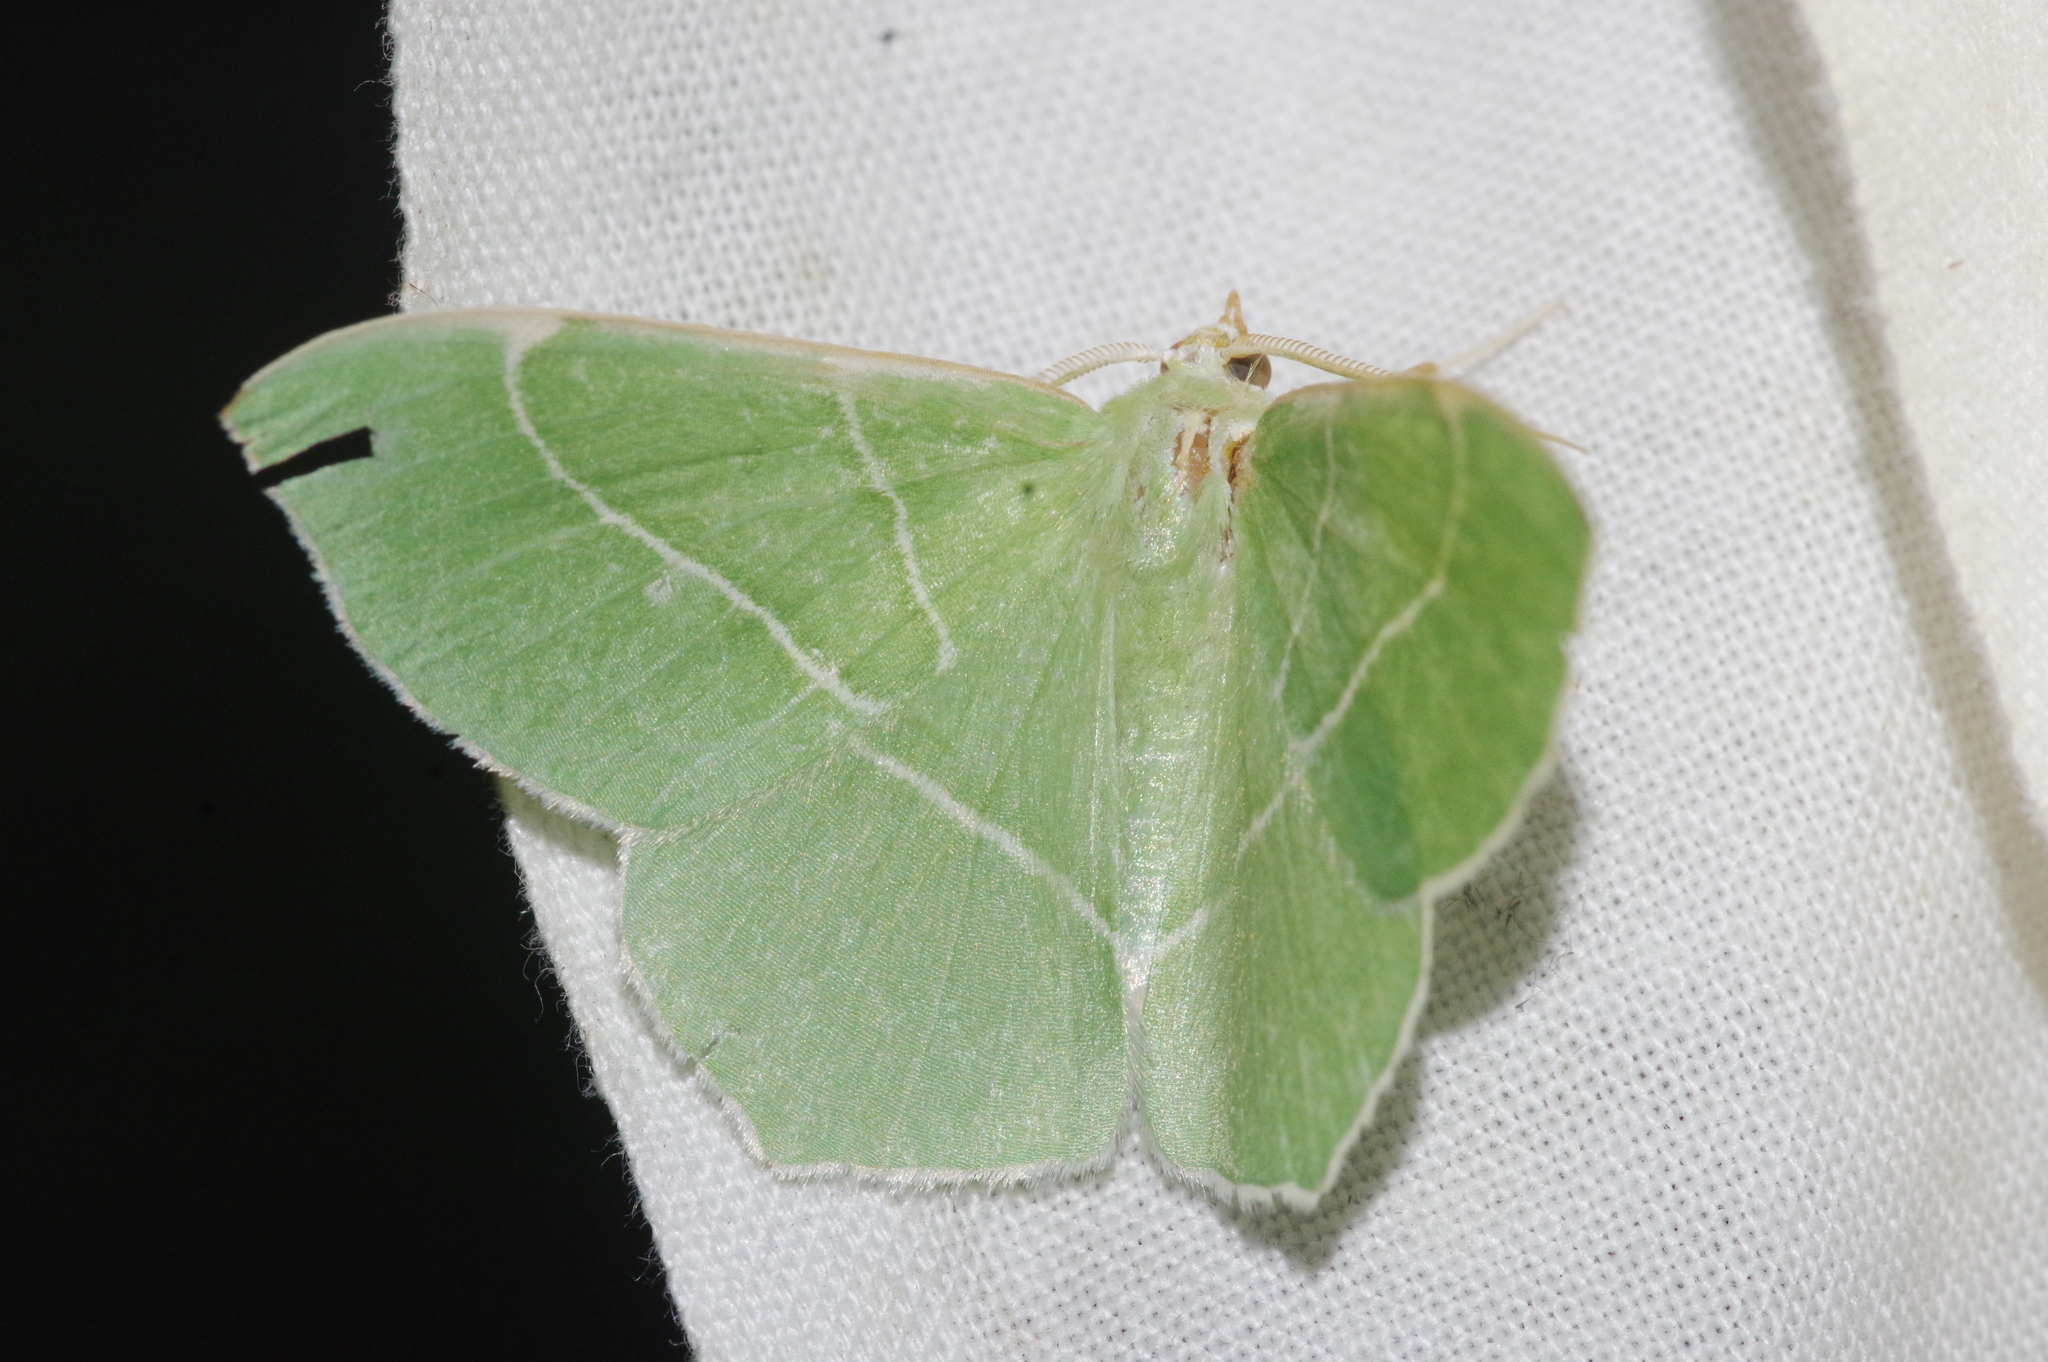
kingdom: Animalia
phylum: Arthropoda
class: Insecta
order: Lepidoptera
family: Geometridae
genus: Geometra
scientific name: Geometra dieckmanni
